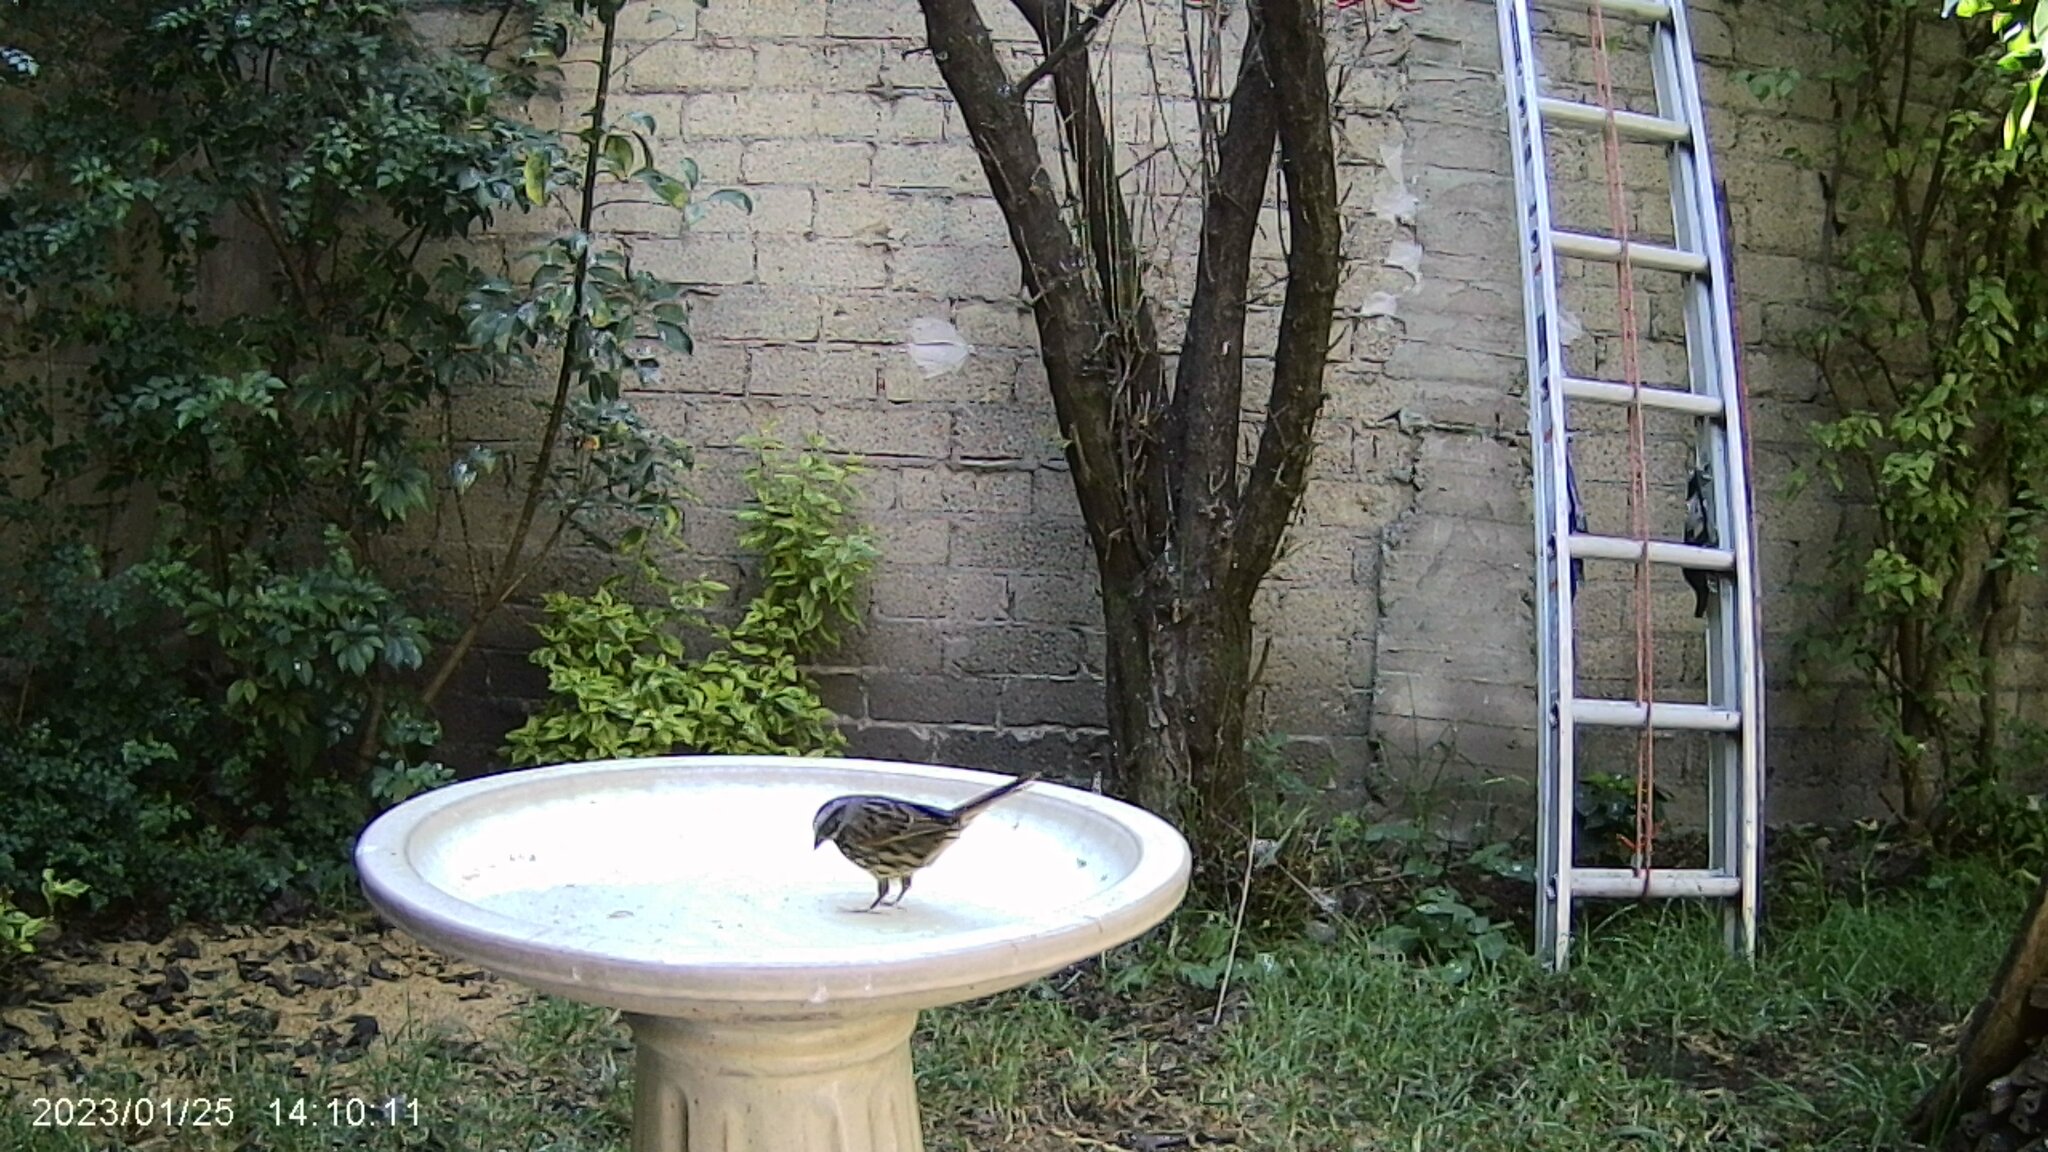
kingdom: Animalia
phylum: Chordata
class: Aves
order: Passeriformes
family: Passerellidae
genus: Melospiza
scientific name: Melospiza melodia
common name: Song sparrow
